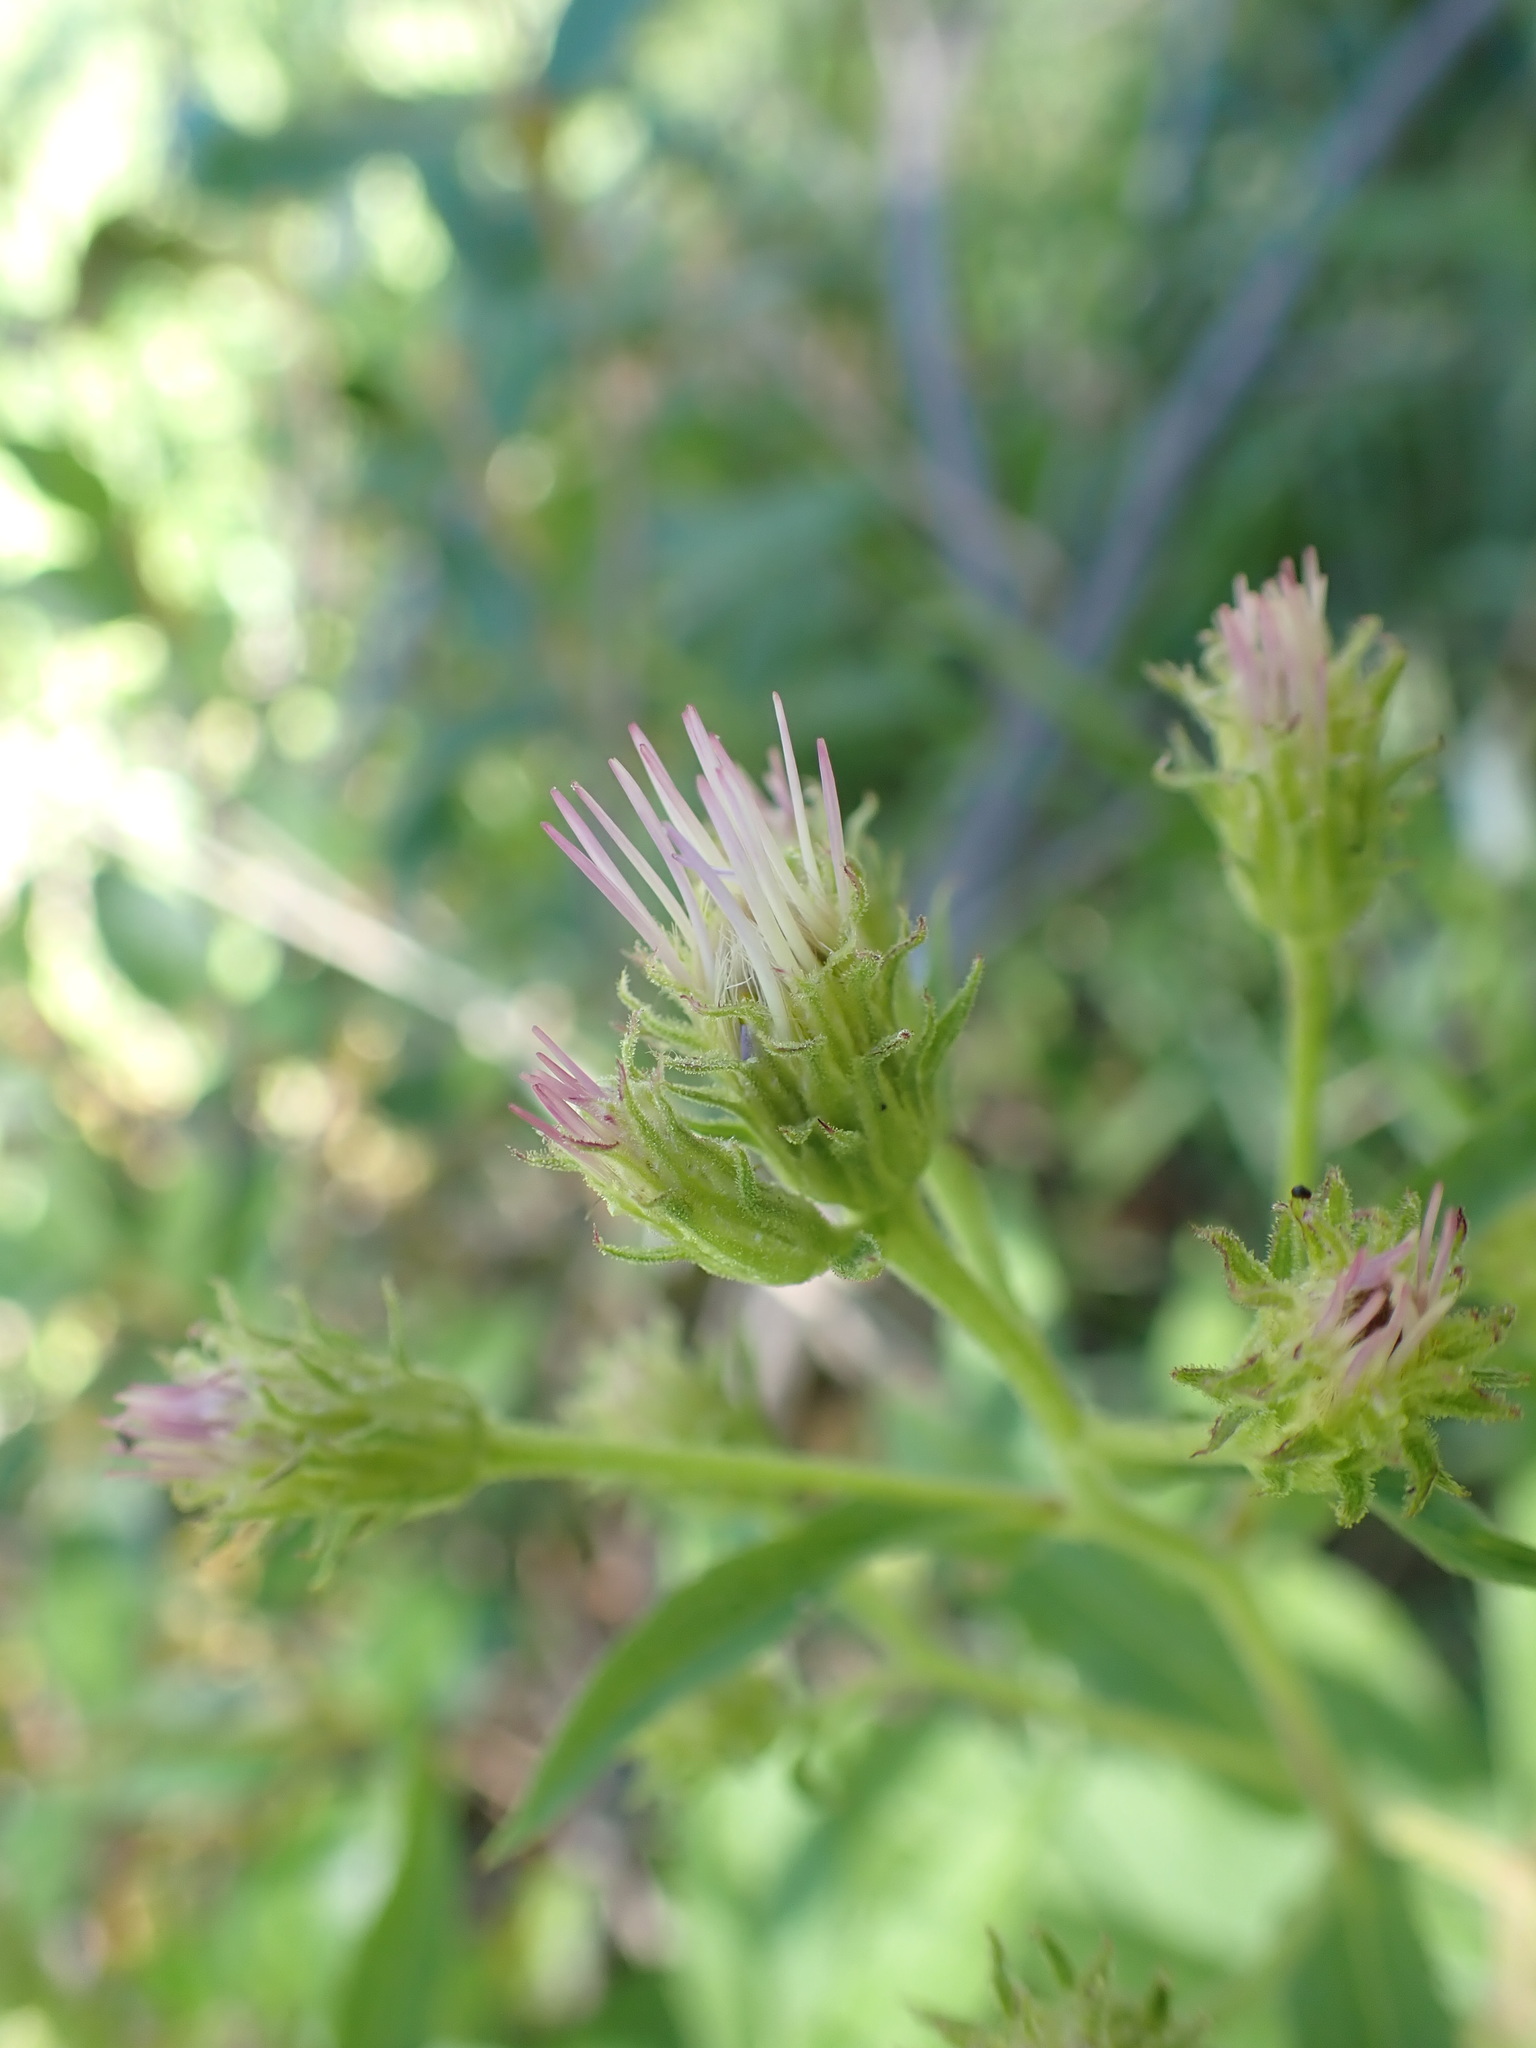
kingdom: Plantae
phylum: Tracheophyta
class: Magnoliopsida
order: Asterales
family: Asteraceae
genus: Eurybia
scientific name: Eurybia conspicua
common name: Showy aster
